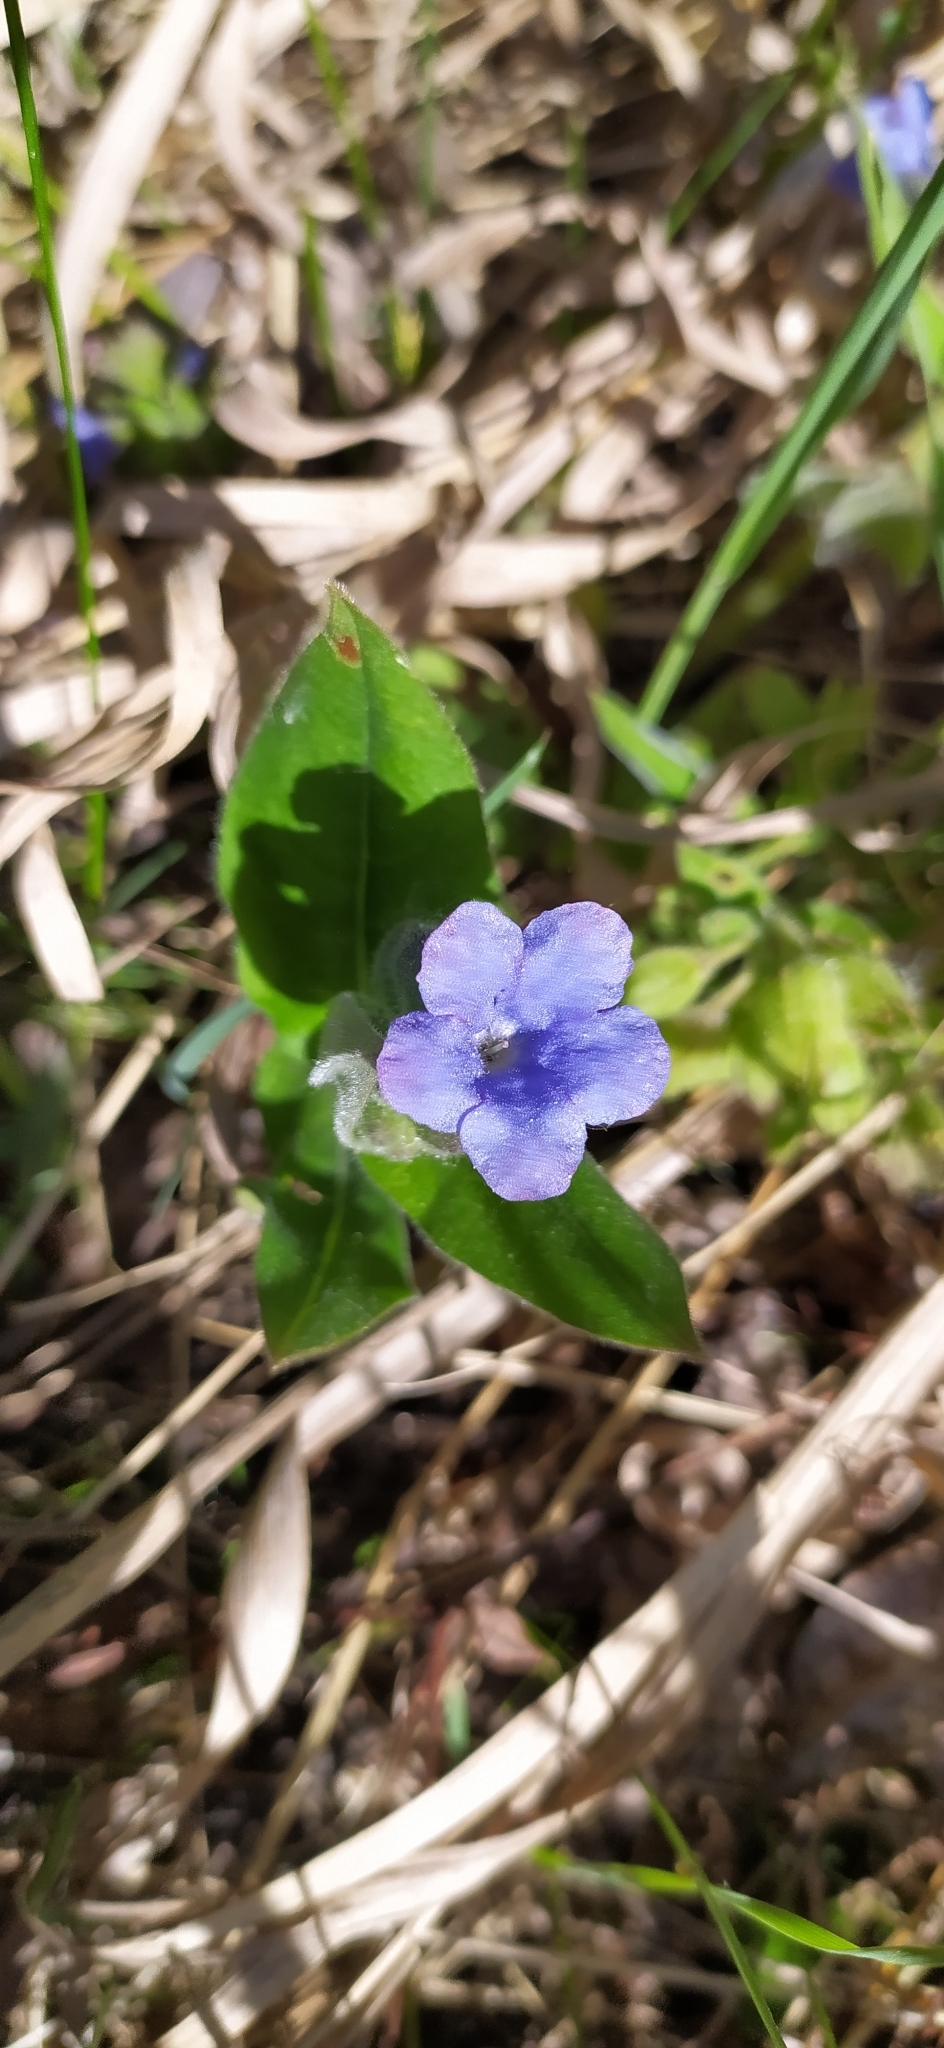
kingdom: Plantae
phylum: Tracheophyta
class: Magnoliopsida
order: Boraginales
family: Boraginaceae
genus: Pulmonaria
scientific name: Pulmonaria mollis
